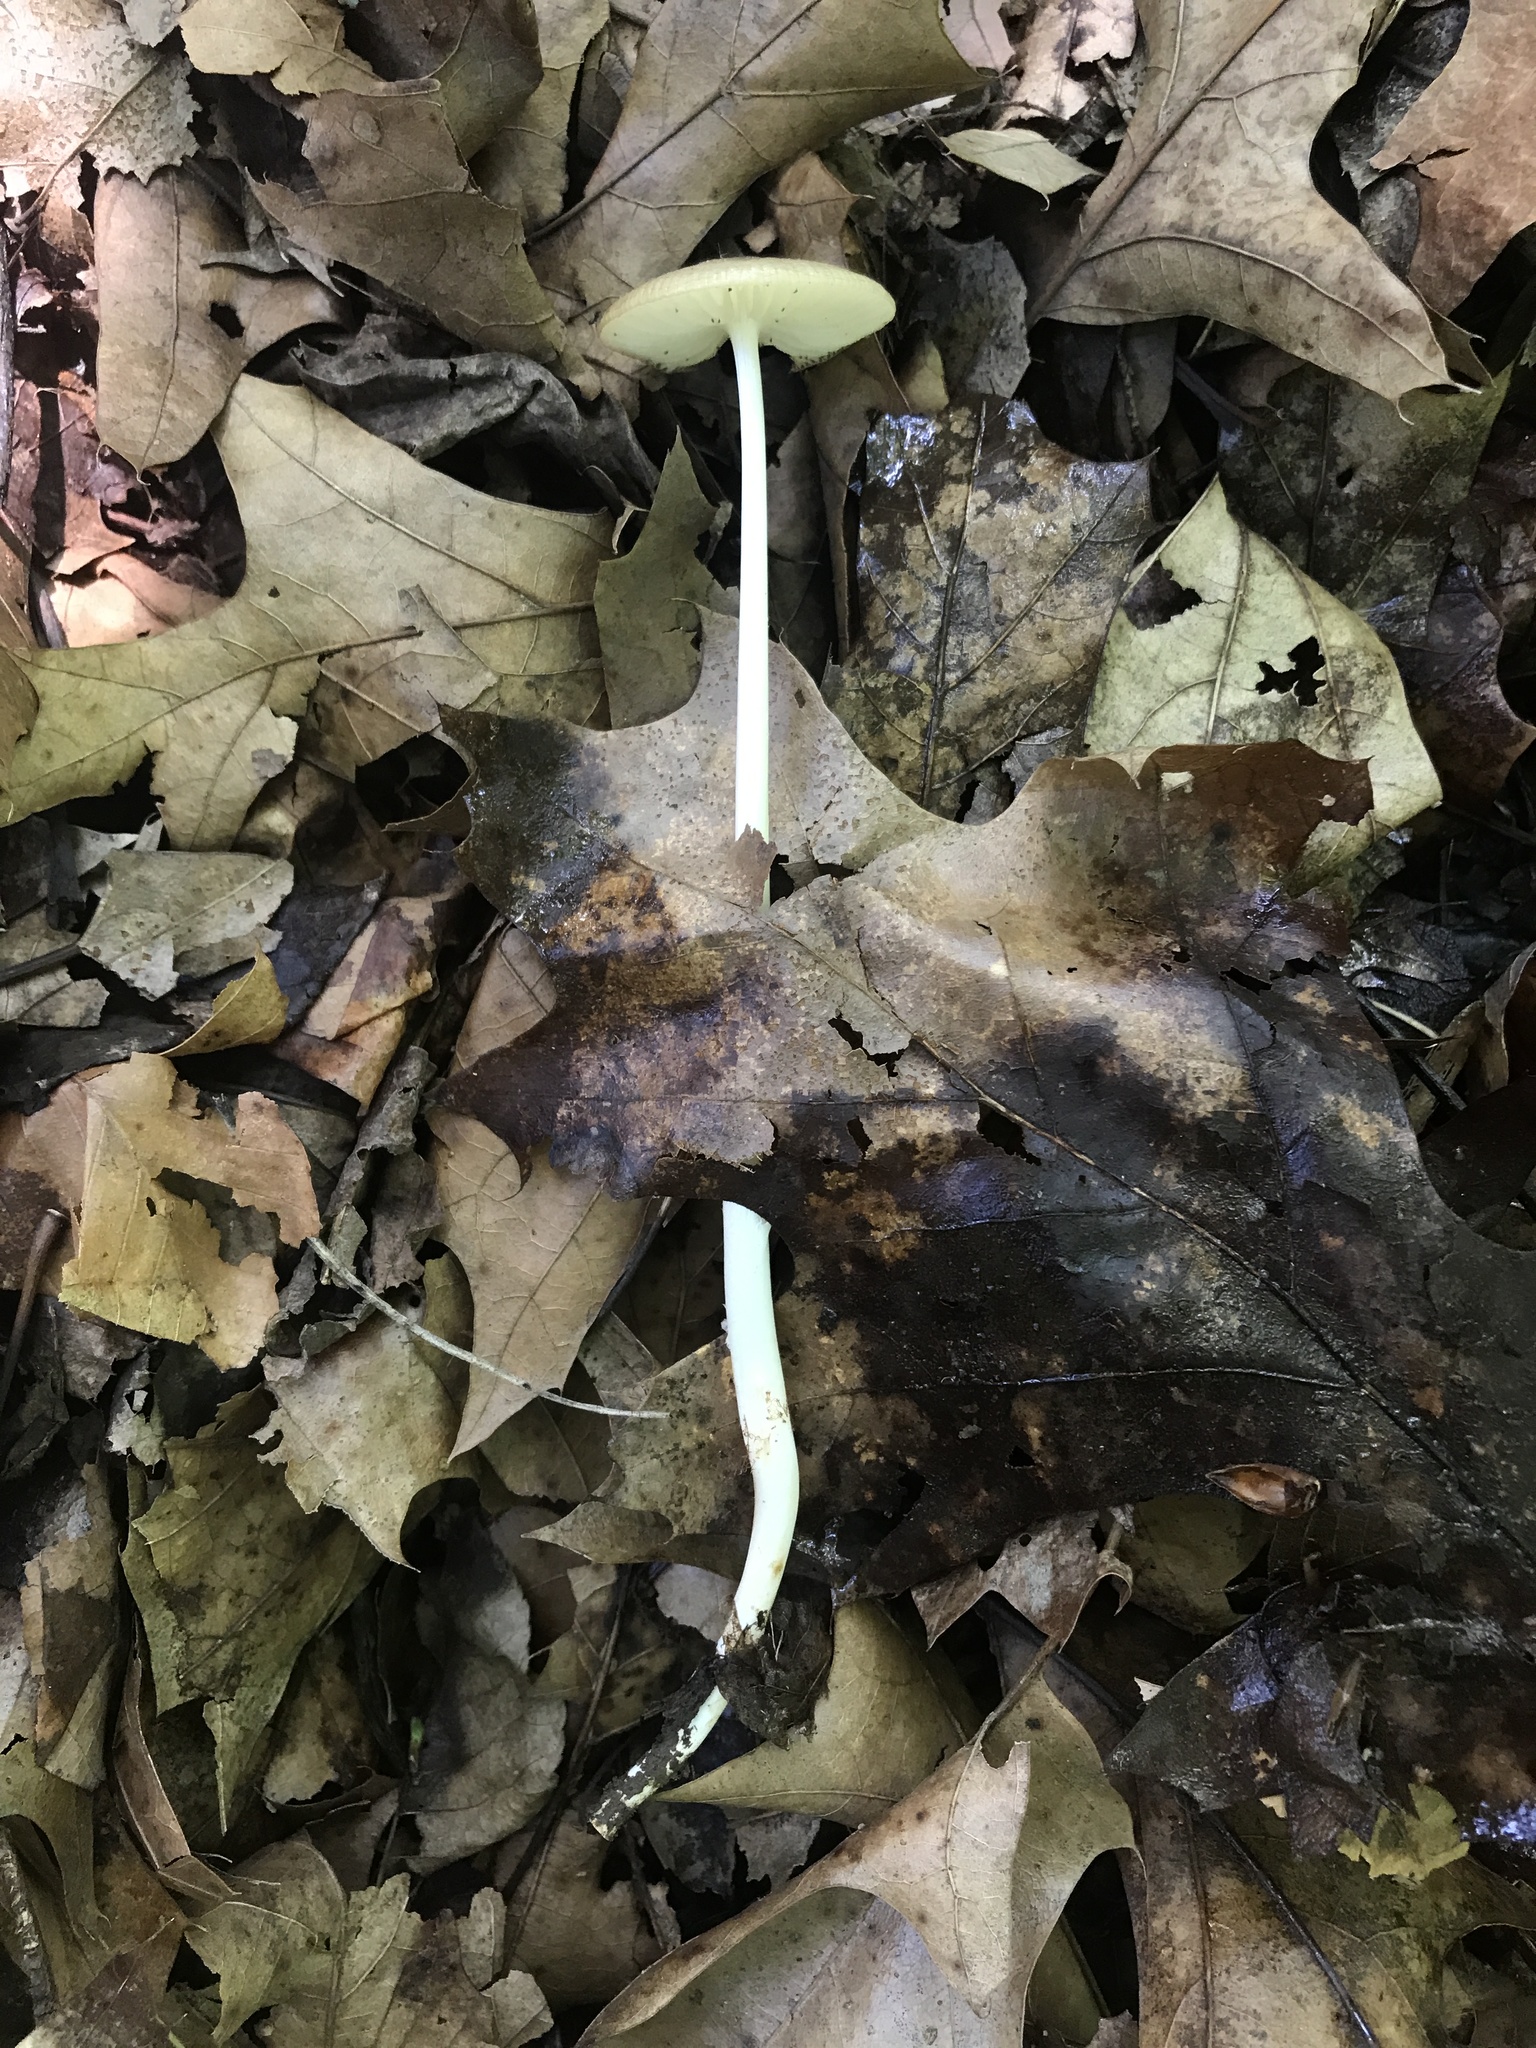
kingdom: Fungi
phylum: Basidiomycota
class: Agaricomycetes
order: Agaricales
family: Physalacriaceae
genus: Hymenopellis
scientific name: Hymenopellis megalospora
